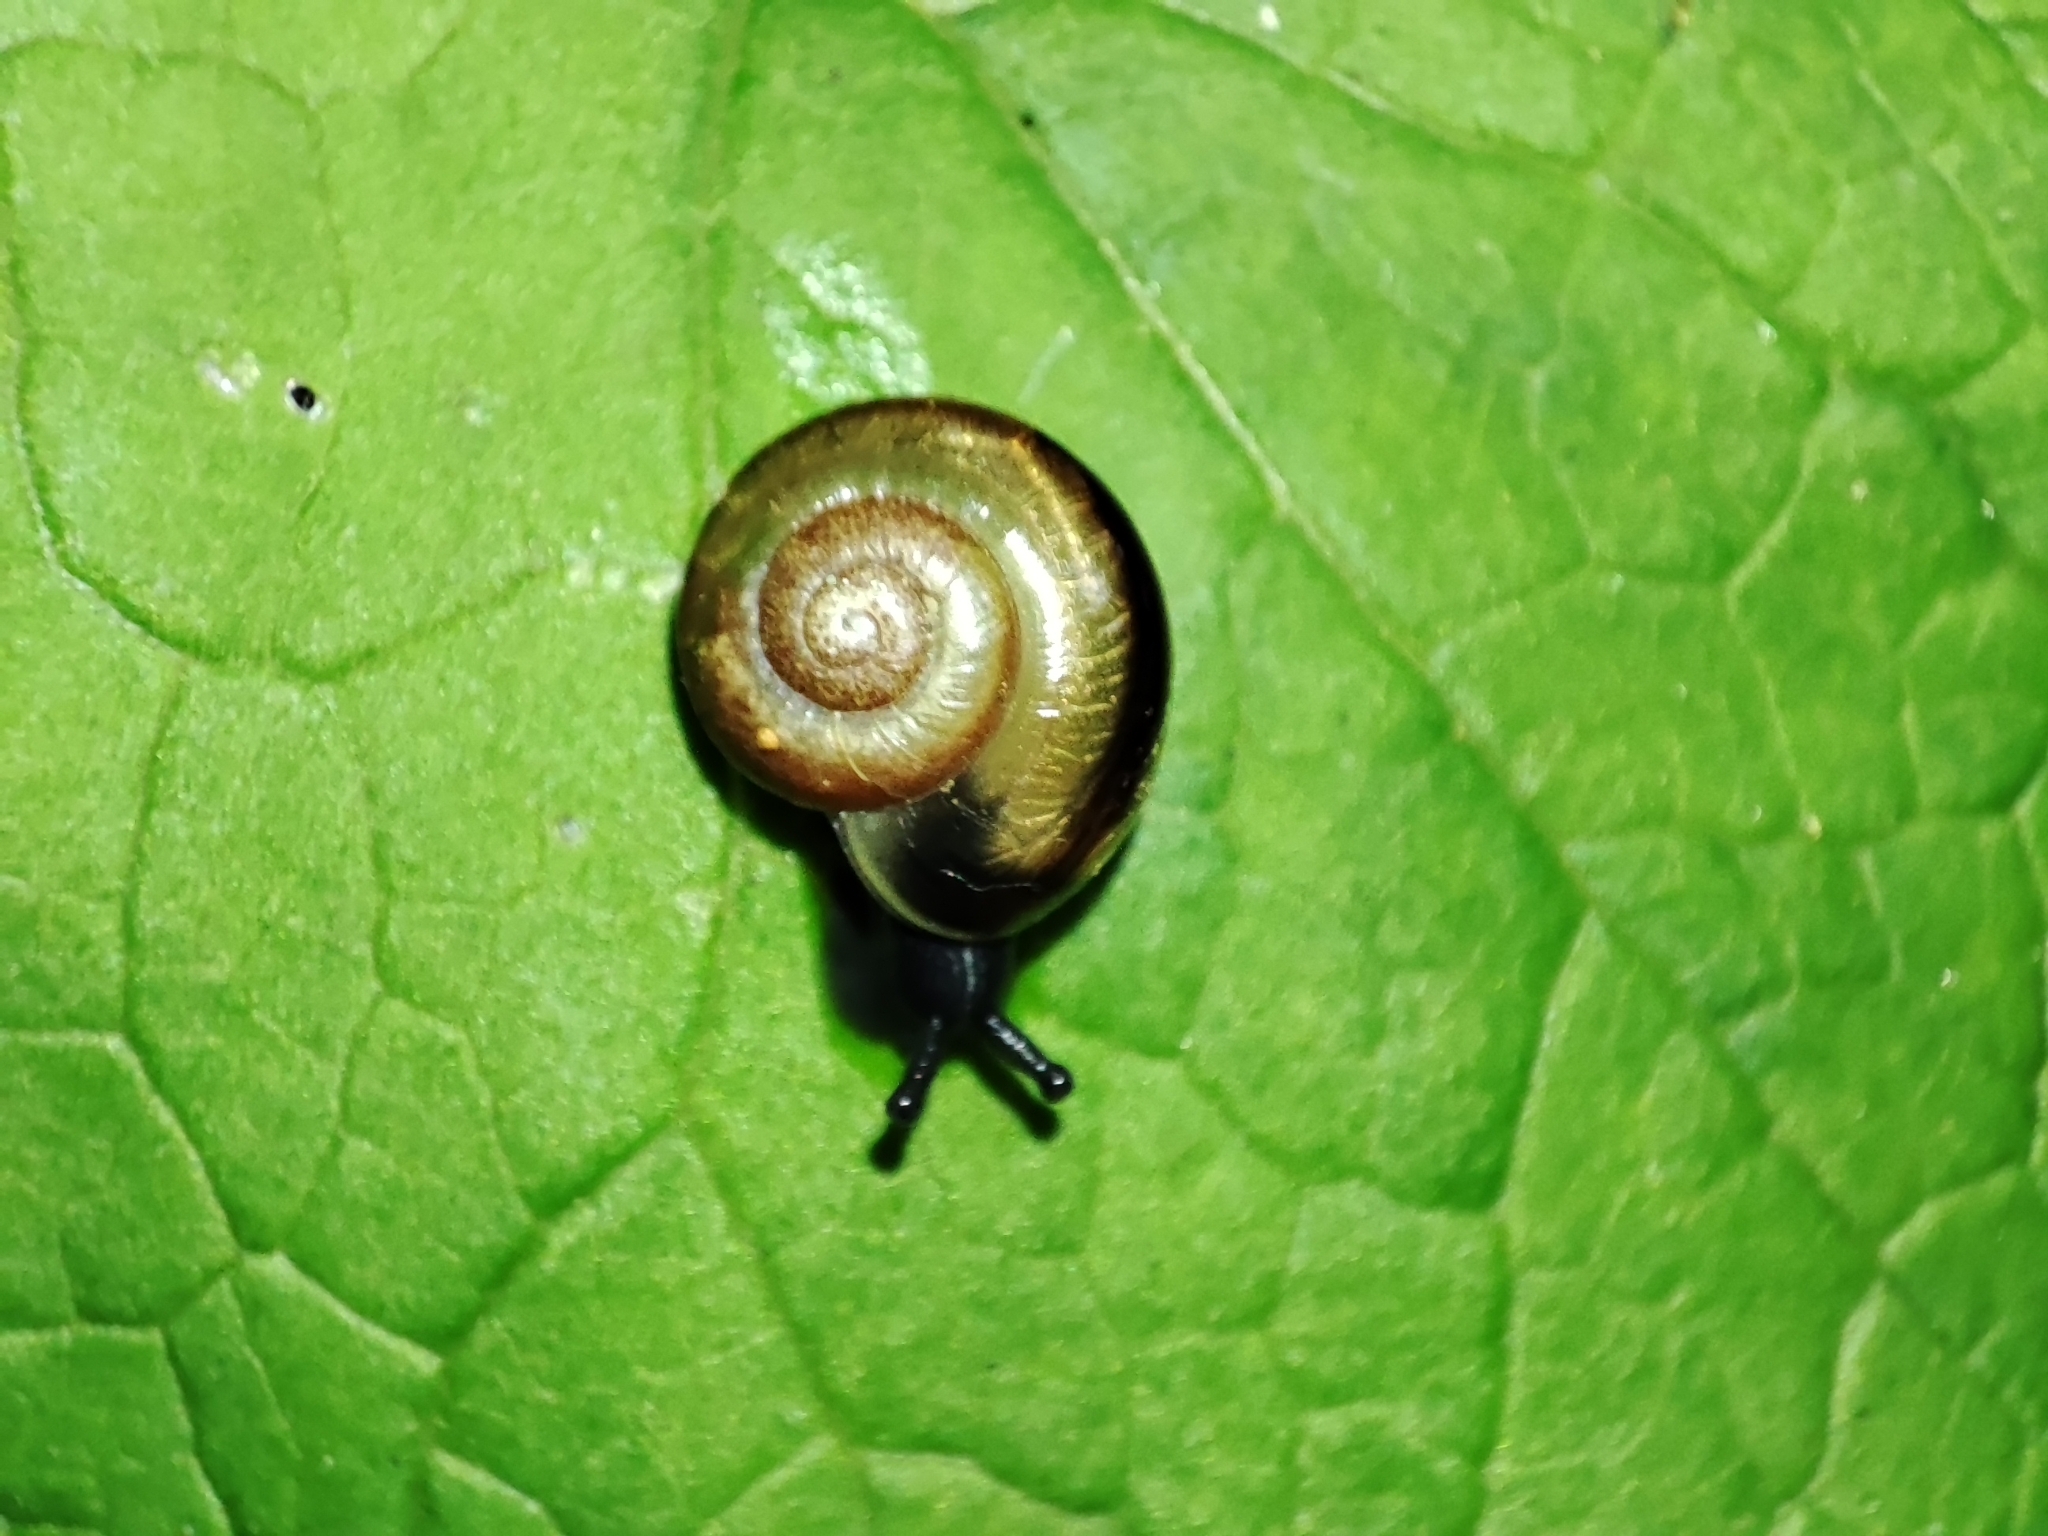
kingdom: Animalia
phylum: Mollusca
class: Gastropoda
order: Stylommatophora
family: Helicidae
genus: Faustina
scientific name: Faustina faustina
